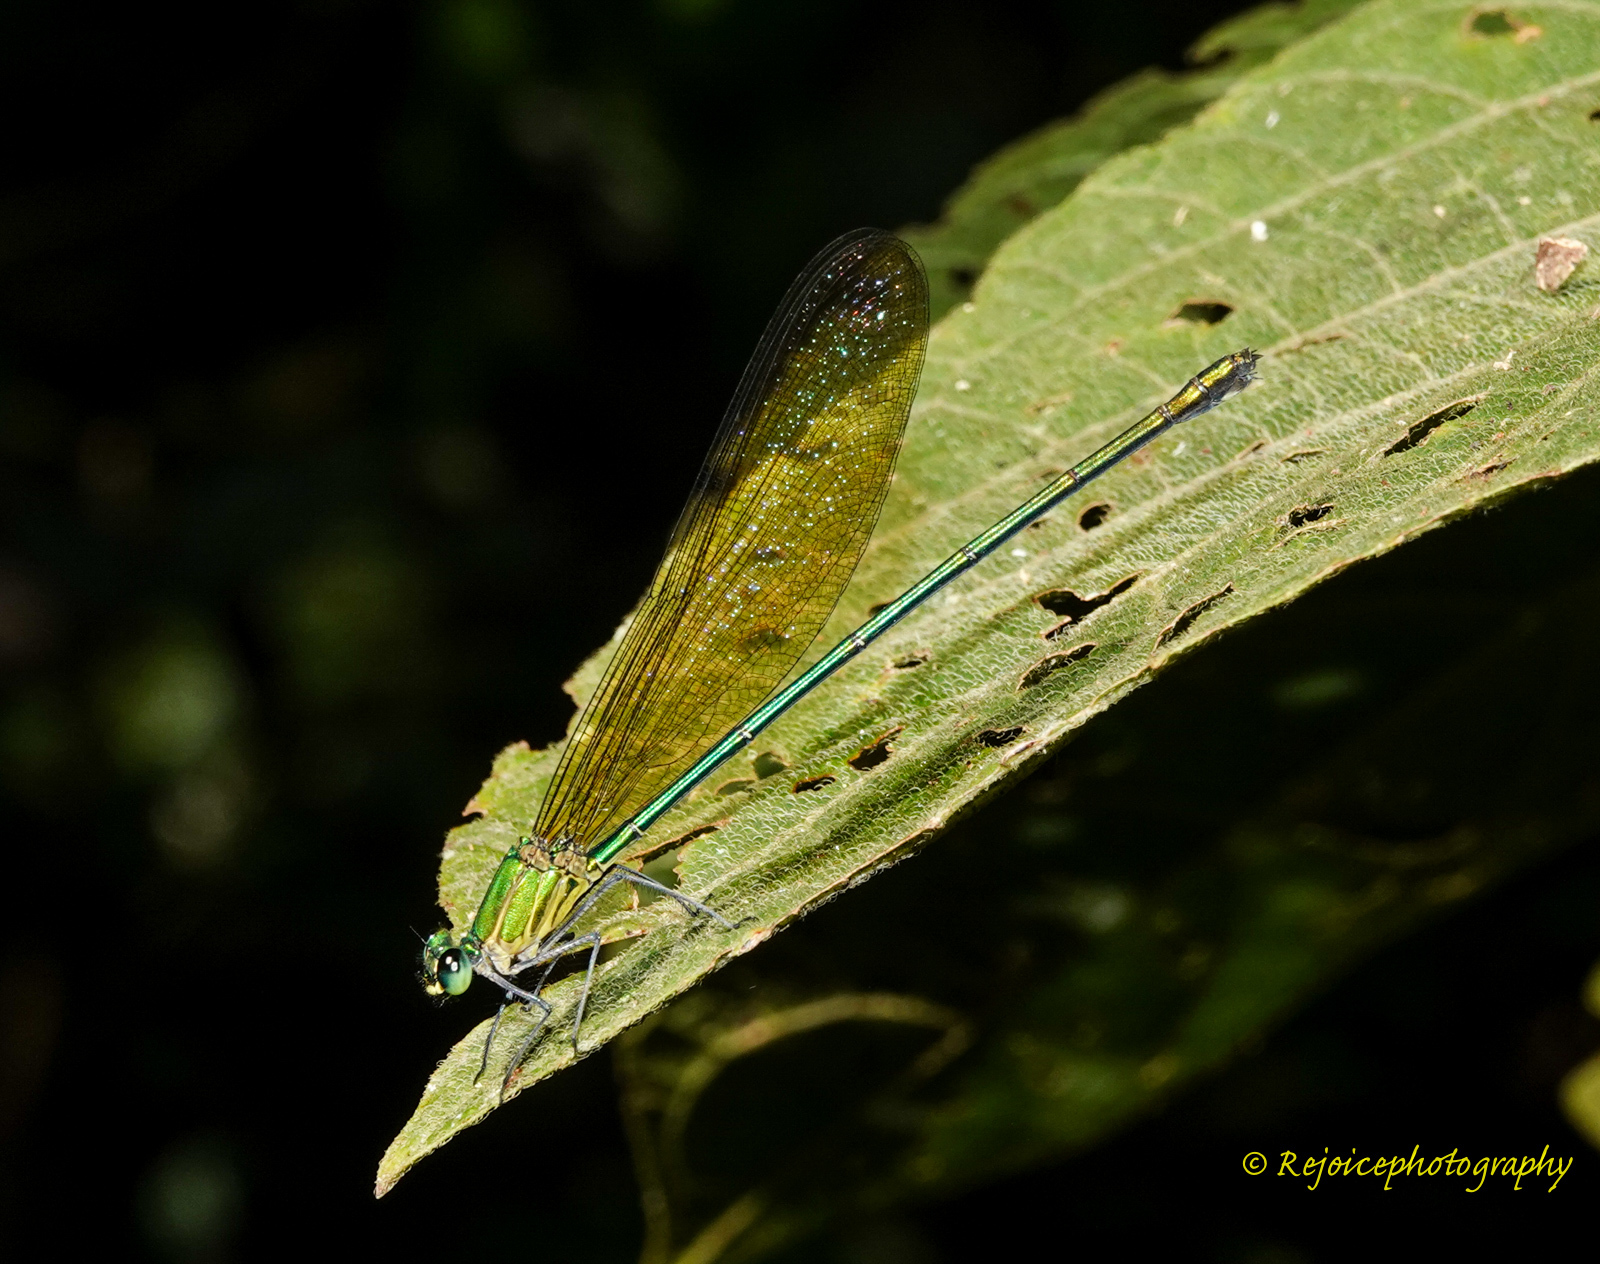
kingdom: Animalia
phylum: Arthropoda
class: Insecta
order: Odonata
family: Calopterygidae
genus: Vestalis
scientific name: Vestalis gracilis
